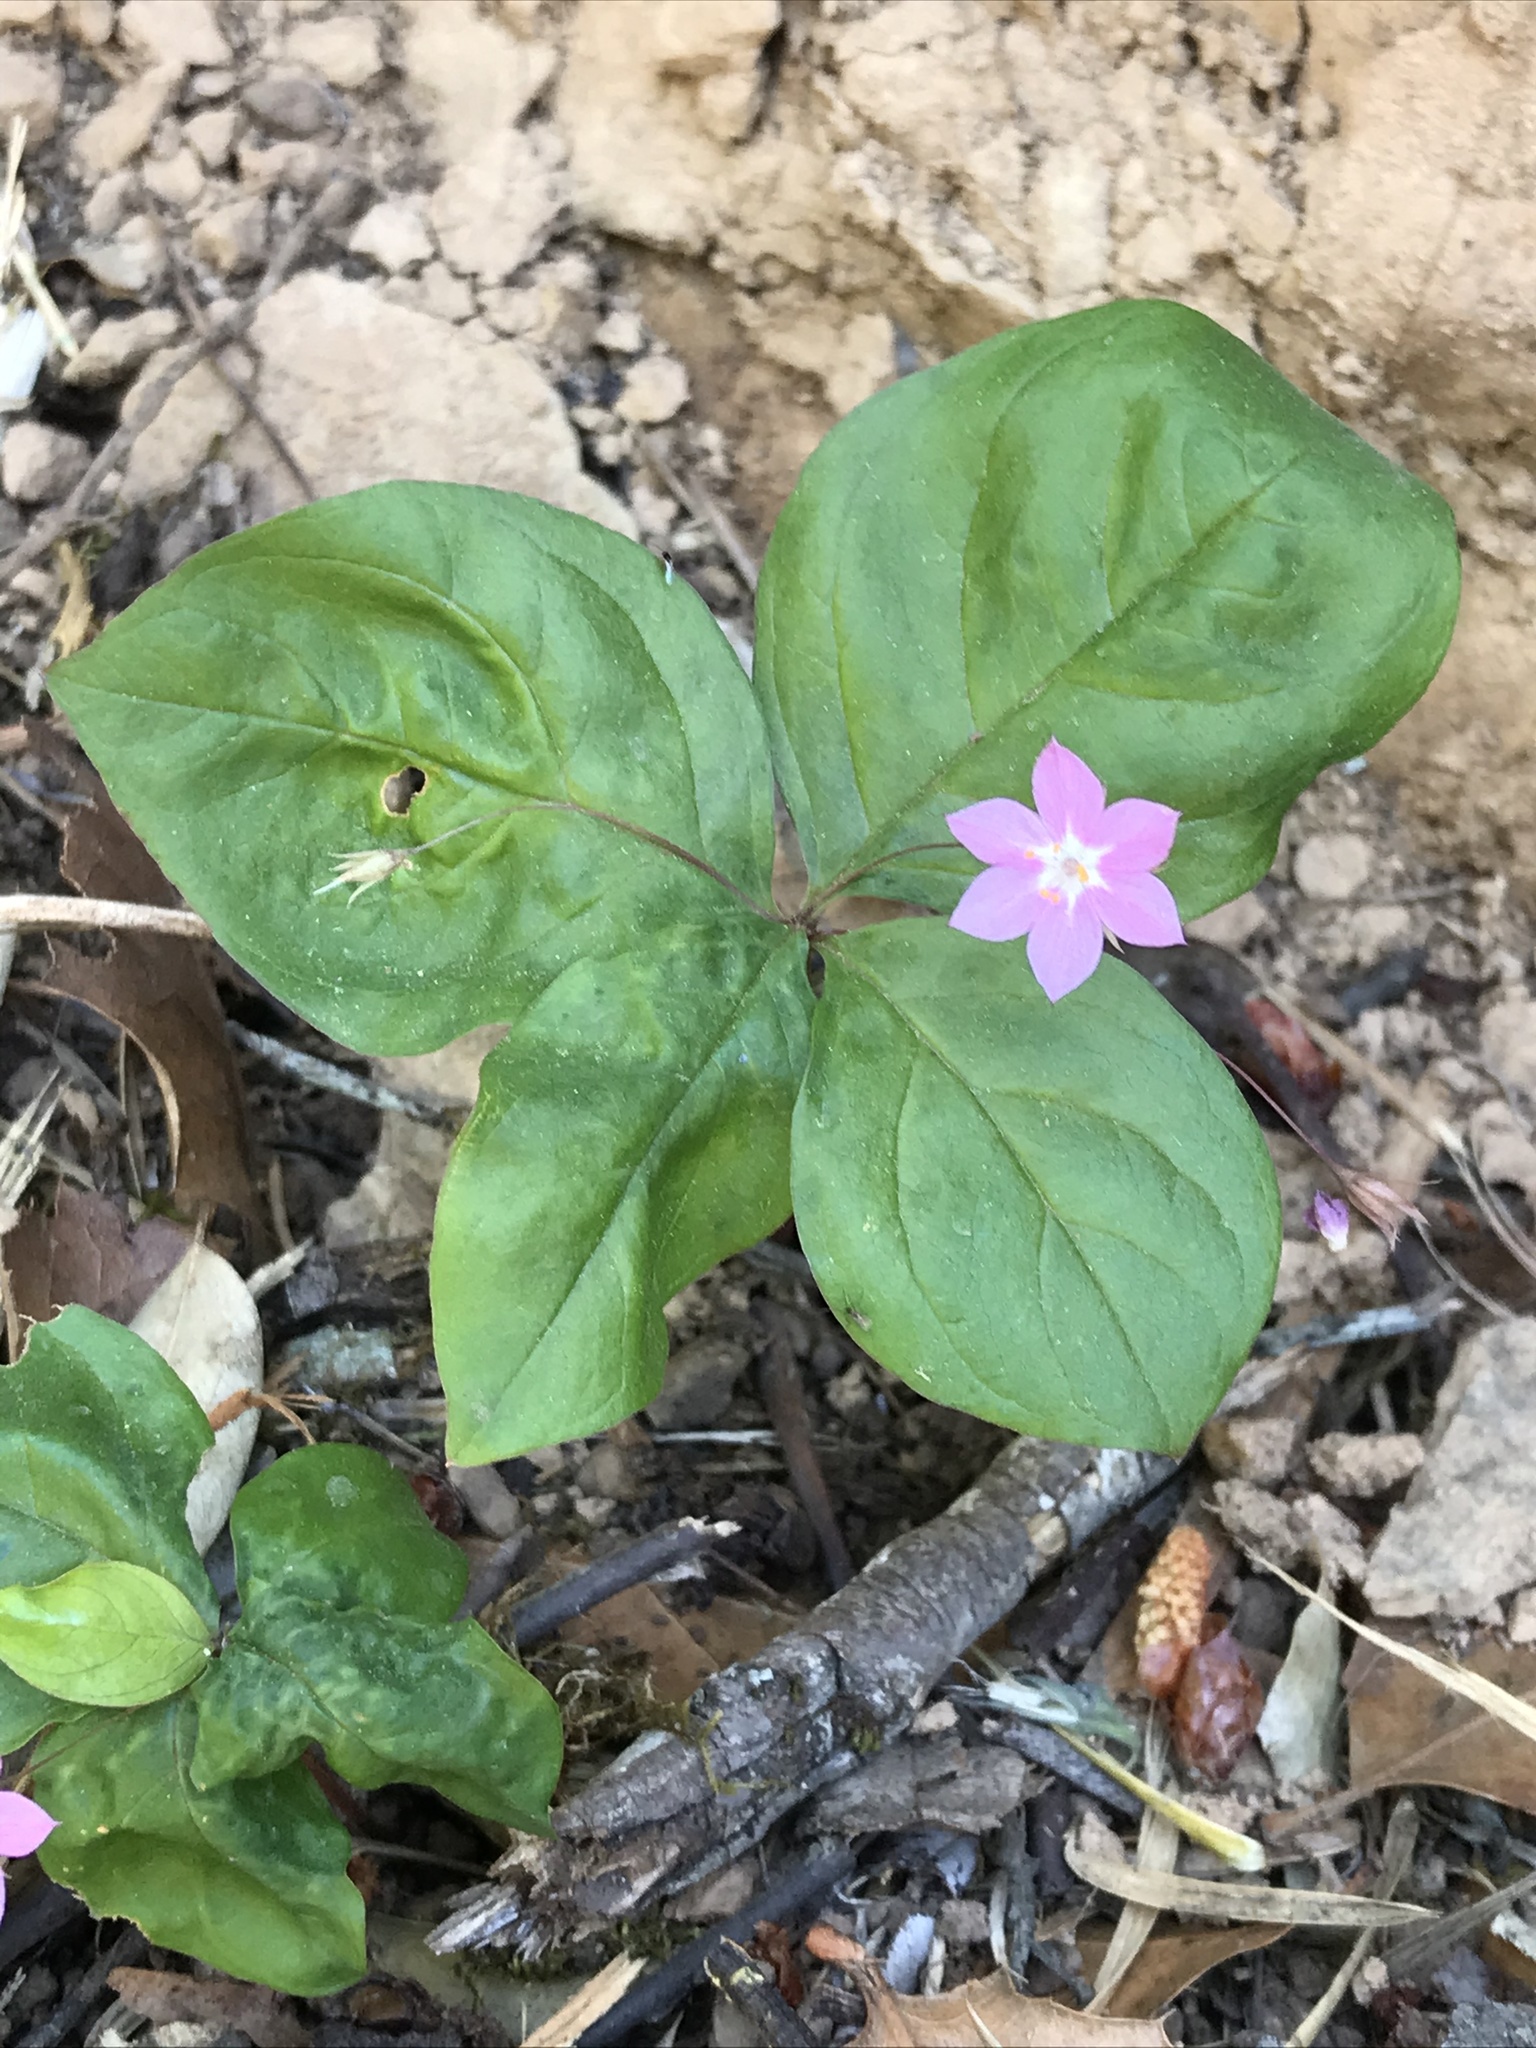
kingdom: Plantae
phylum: Tracheophyta
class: Magnoliopsida
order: Ericales
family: Primulaceae
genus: Lysimachia
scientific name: Lysimachia latifolia
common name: Pacific starflower
